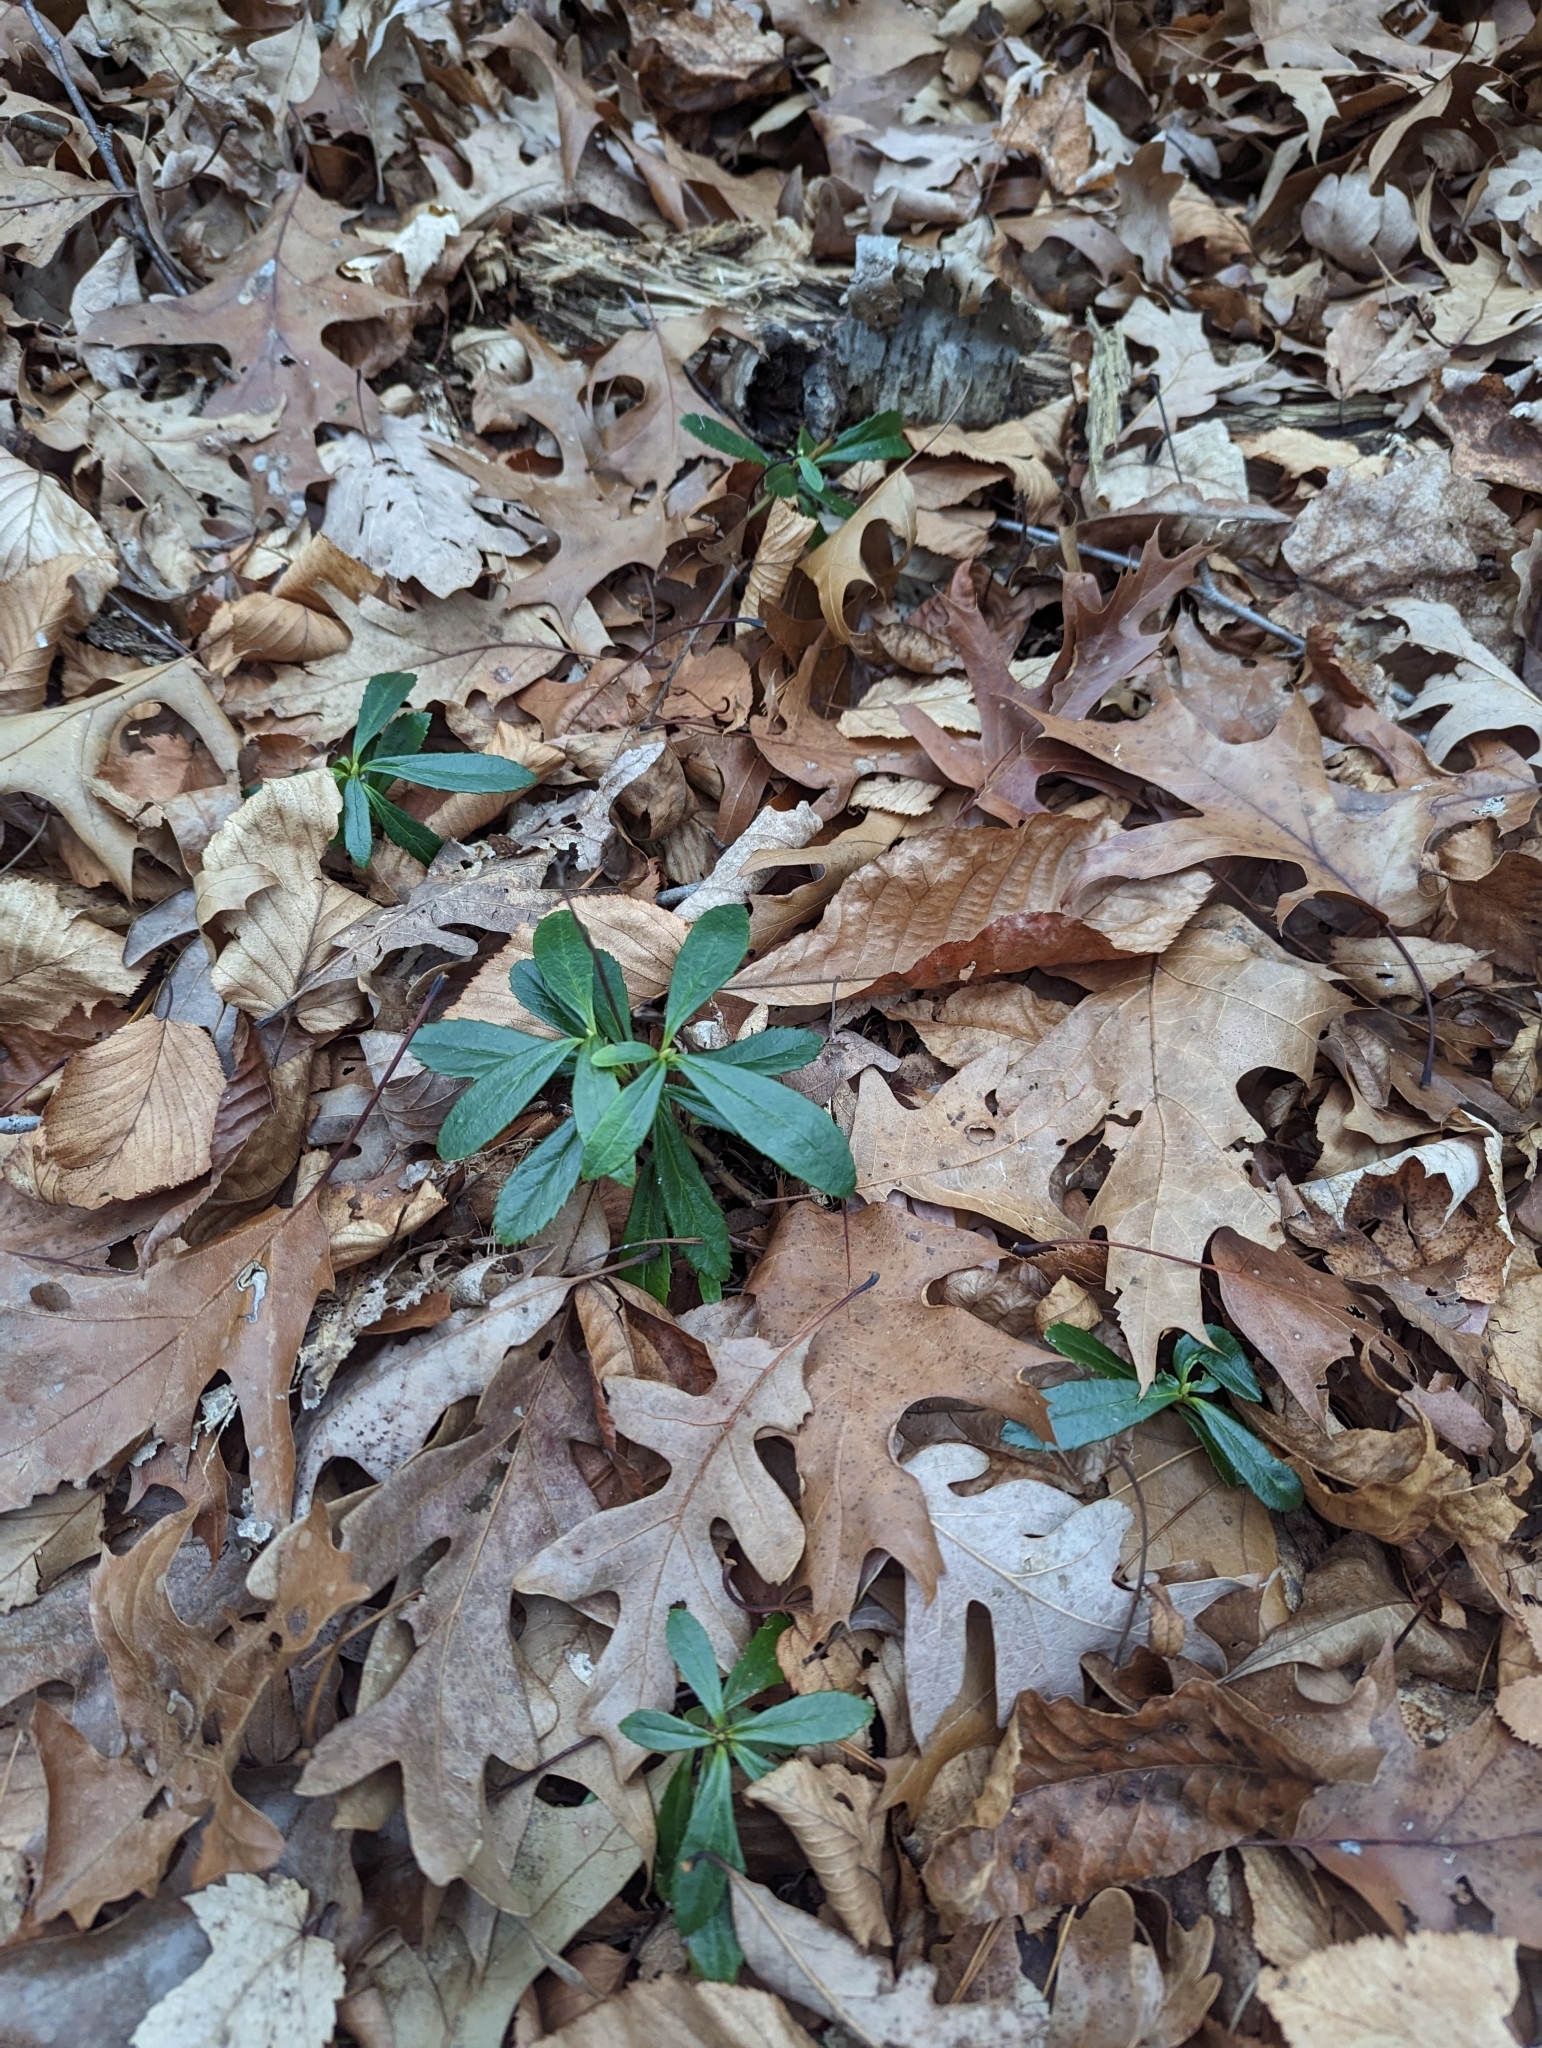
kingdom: Plantae
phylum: Tracheophyta
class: Magnoliopsida
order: Ericales
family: Ericaceae
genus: Chimaphila
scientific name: Chimaphila umbellata
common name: Pipsissewa
